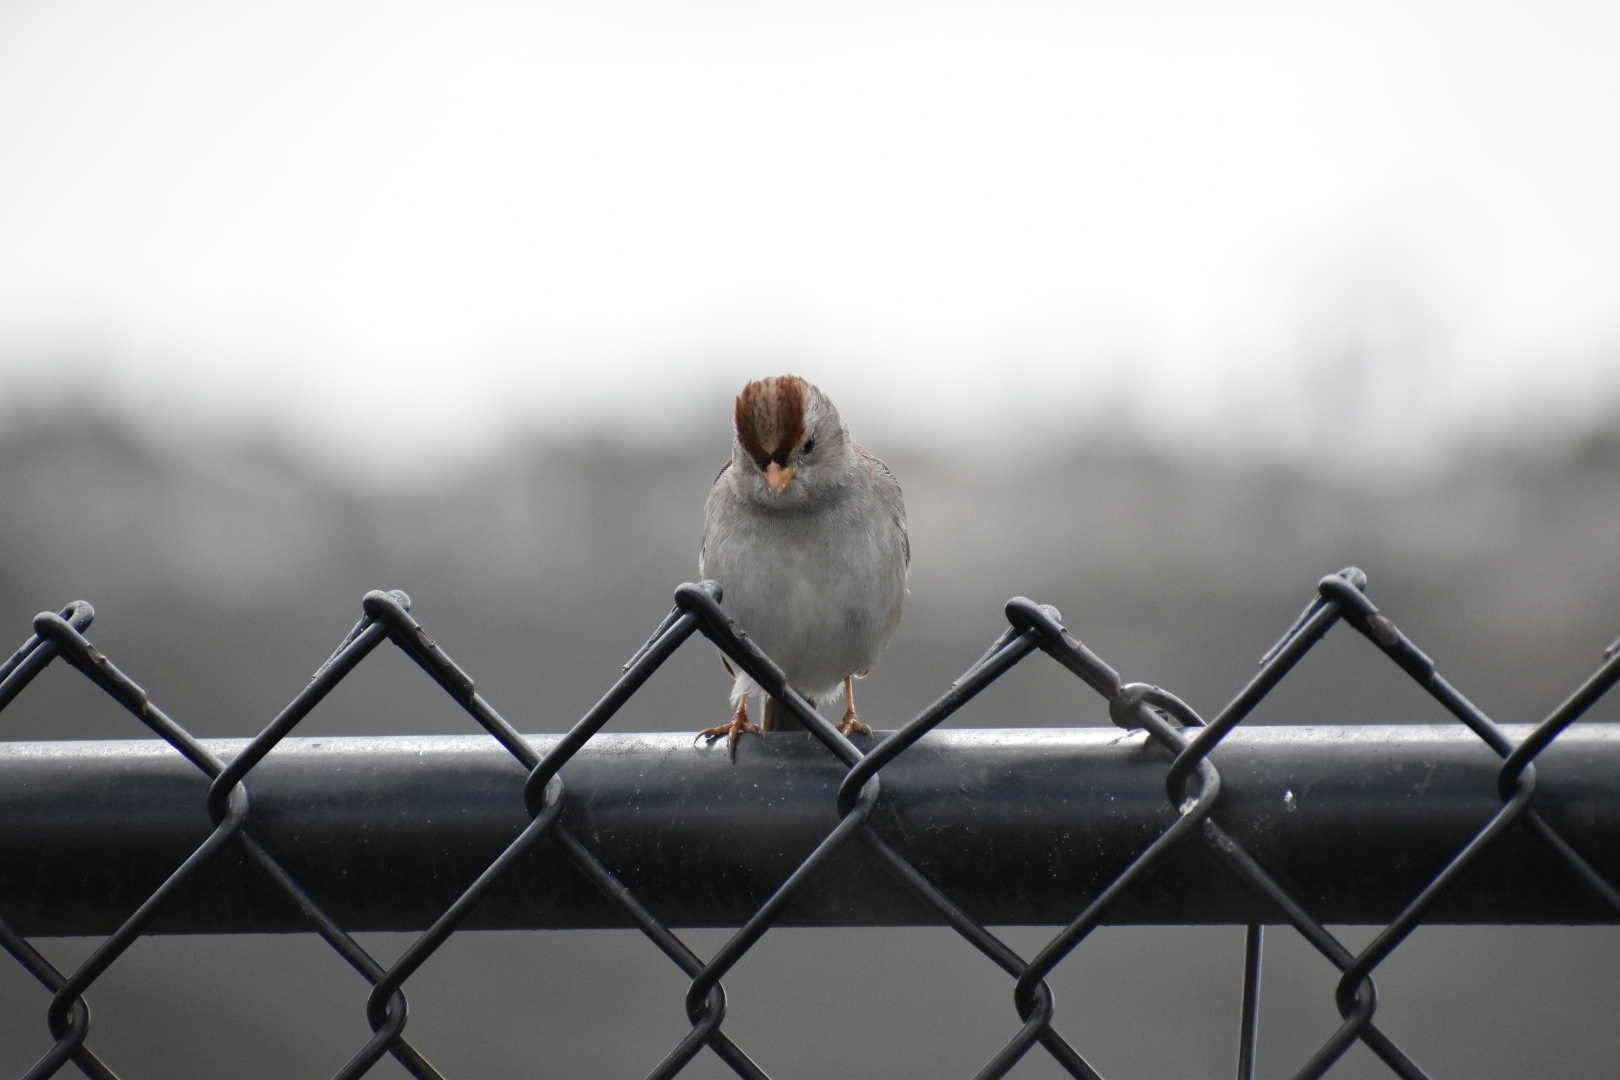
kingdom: Animalia
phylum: Chordata
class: Aves
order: Passeriformes
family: Passerellidae
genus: Zonotrichia
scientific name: Zonotrichia leucophrys
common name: White-crowned sparrow
